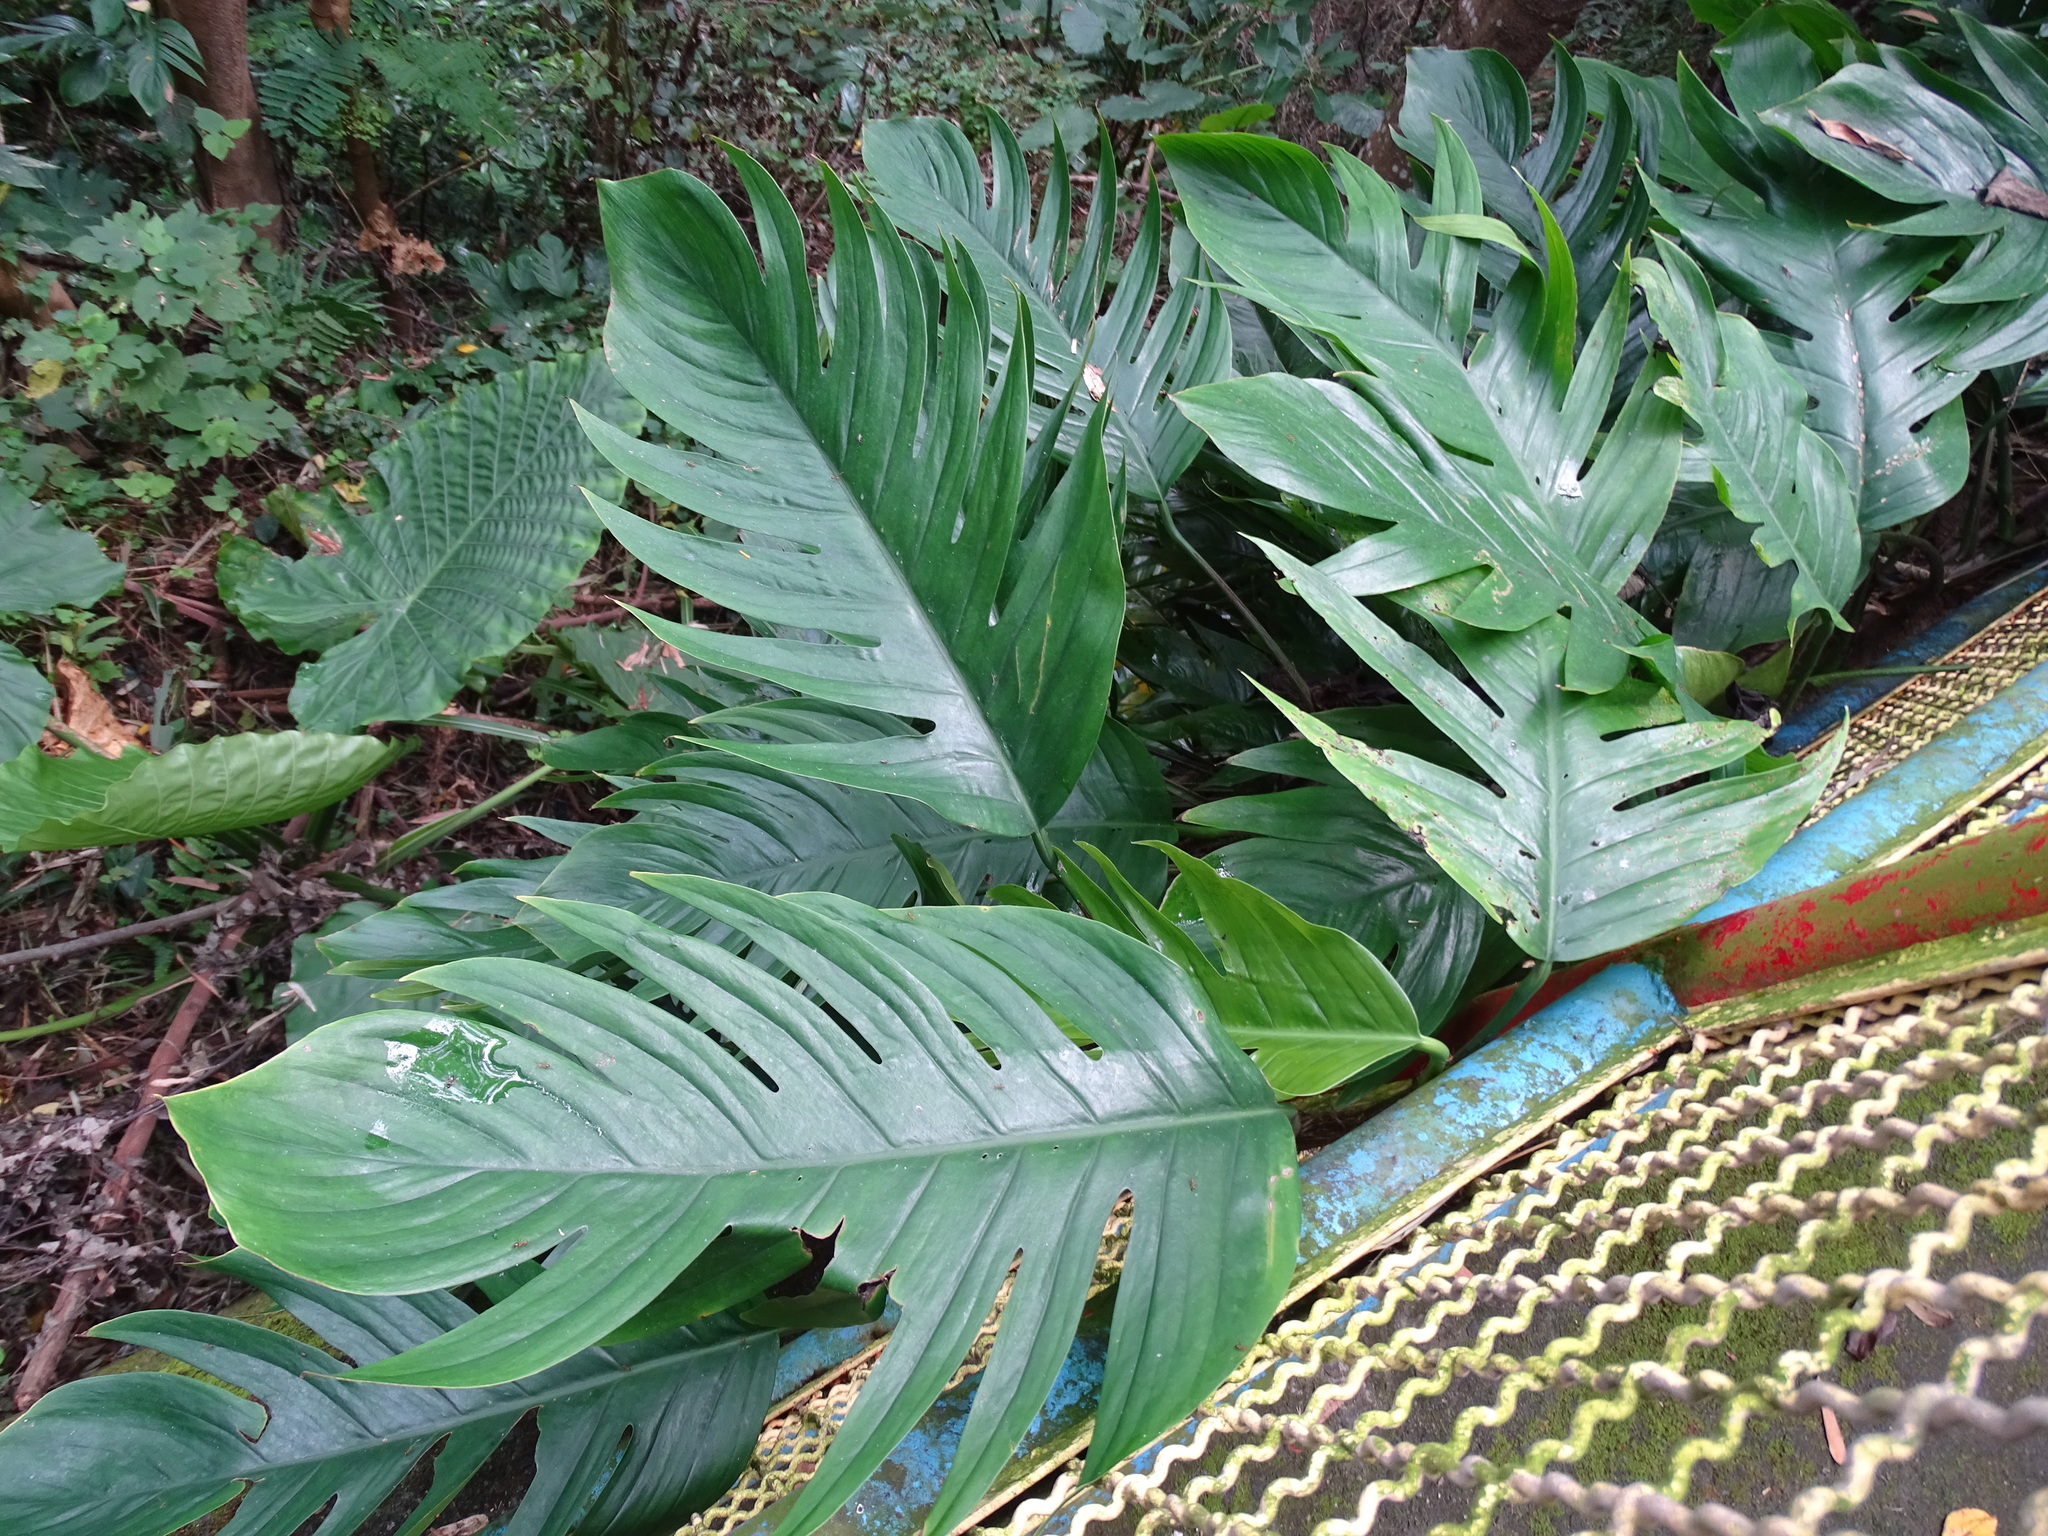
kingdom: Plantae
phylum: Tracheophyta
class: Liliopsida
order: Alismatales
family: Araceae
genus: Epipremnum
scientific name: Epipremnum pinnatum
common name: Centipede tongavine
